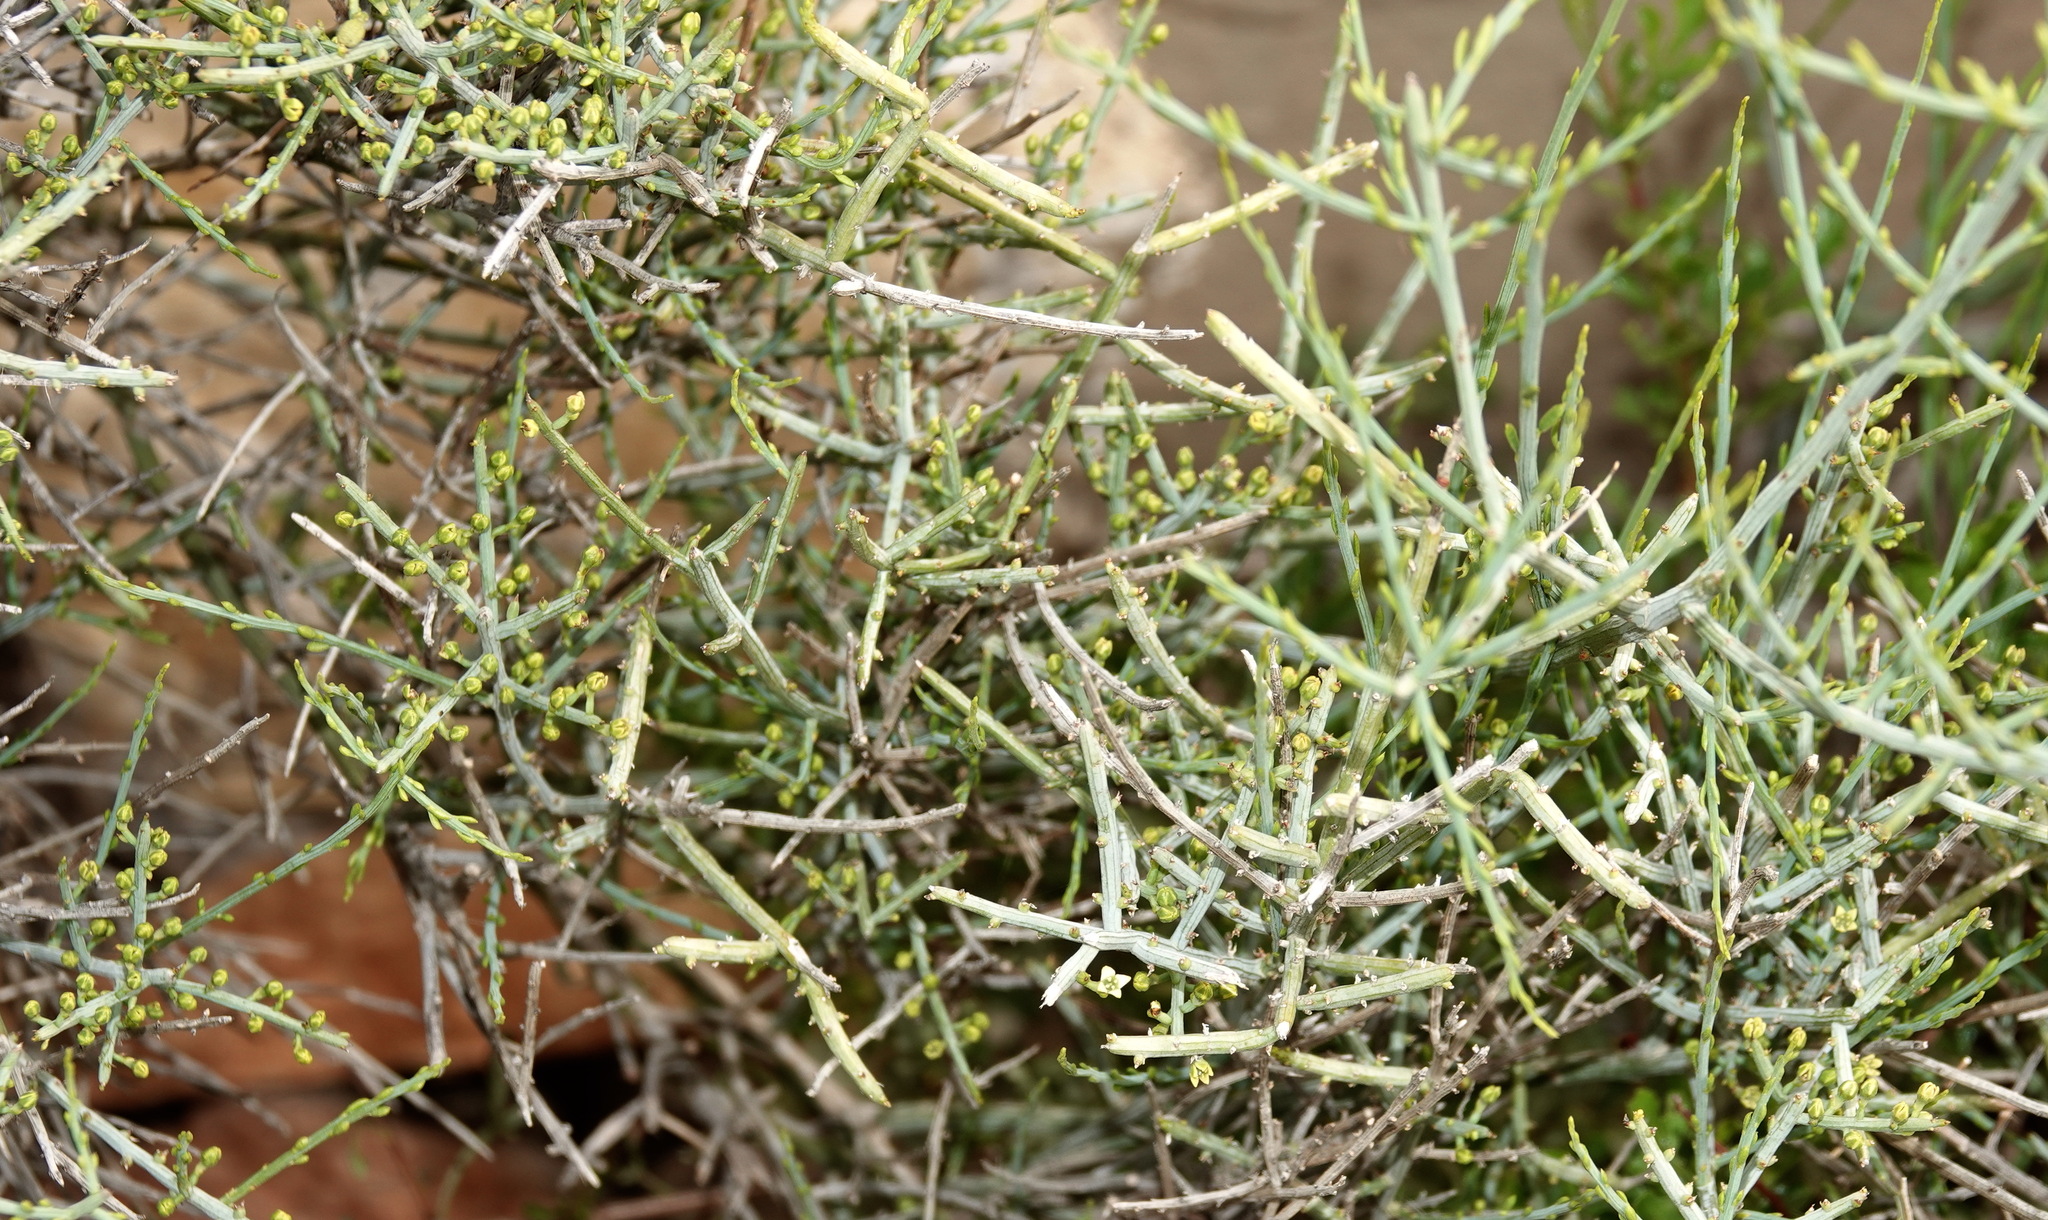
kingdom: Plantae
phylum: Tracheophyta
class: Magnoliopsida
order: Santalales
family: Thesiaceae
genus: Lacomucinaea
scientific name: Lacomucinaea lineata
